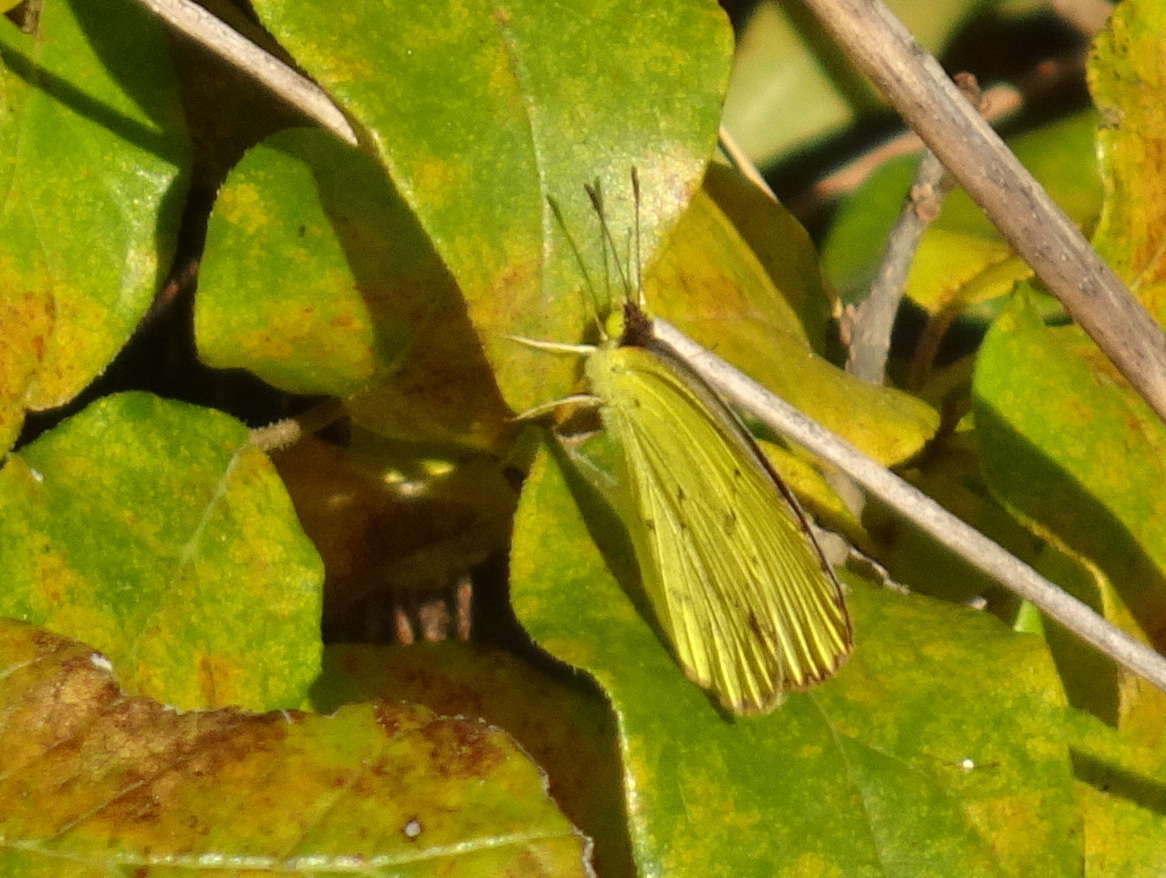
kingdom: Animalia
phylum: Arthropoda
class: Insecta
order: Lepidoptera
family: Pieridae
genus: Pyrisitia
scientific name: Pyrisitia lisa
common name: Little yellow
